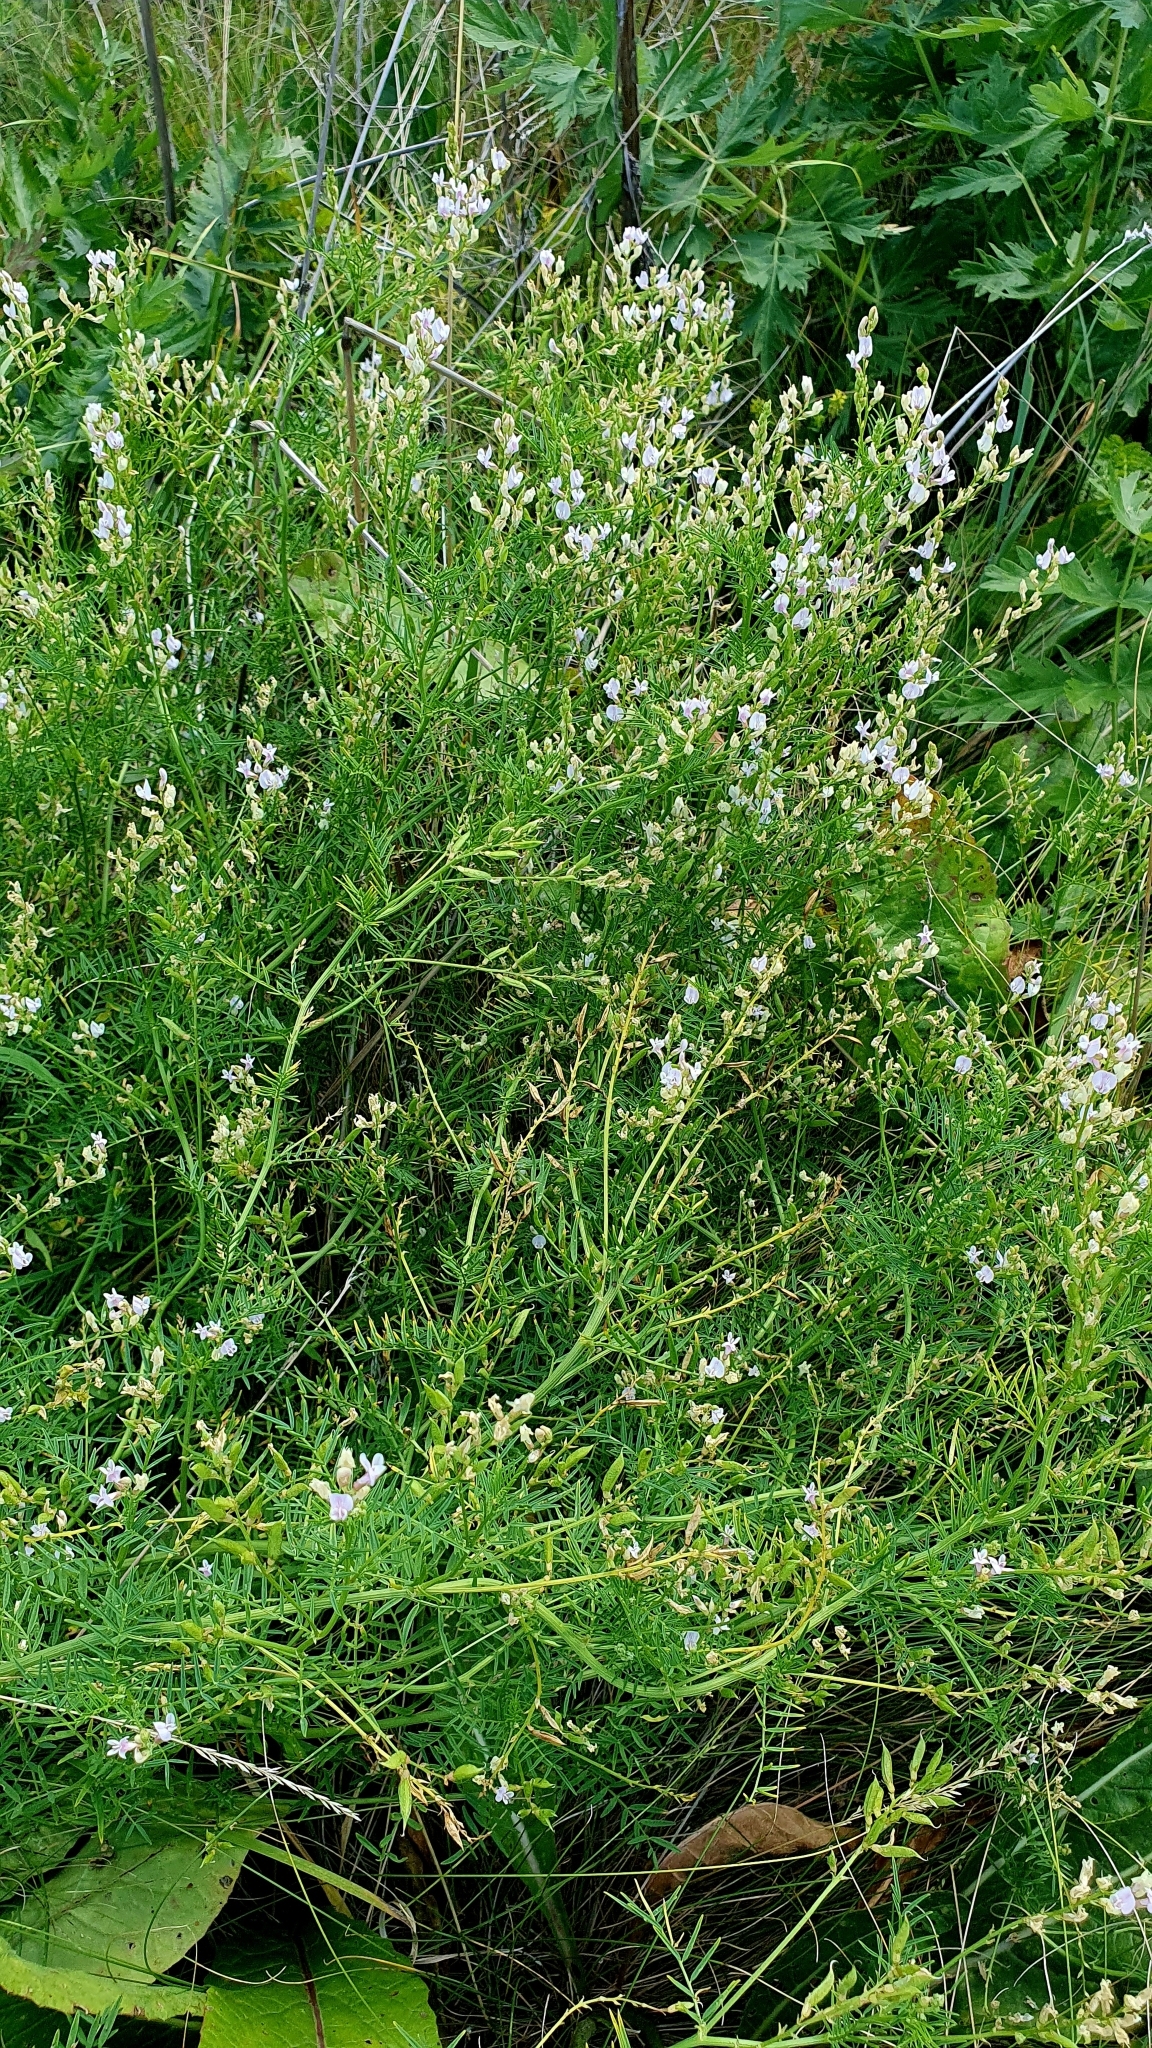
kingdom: Plantae
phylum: Tracheophyta
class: Magnoliopsida
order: Fabales
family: Fabaceae
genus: Astragalus
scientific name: Astragalus sulcatus
